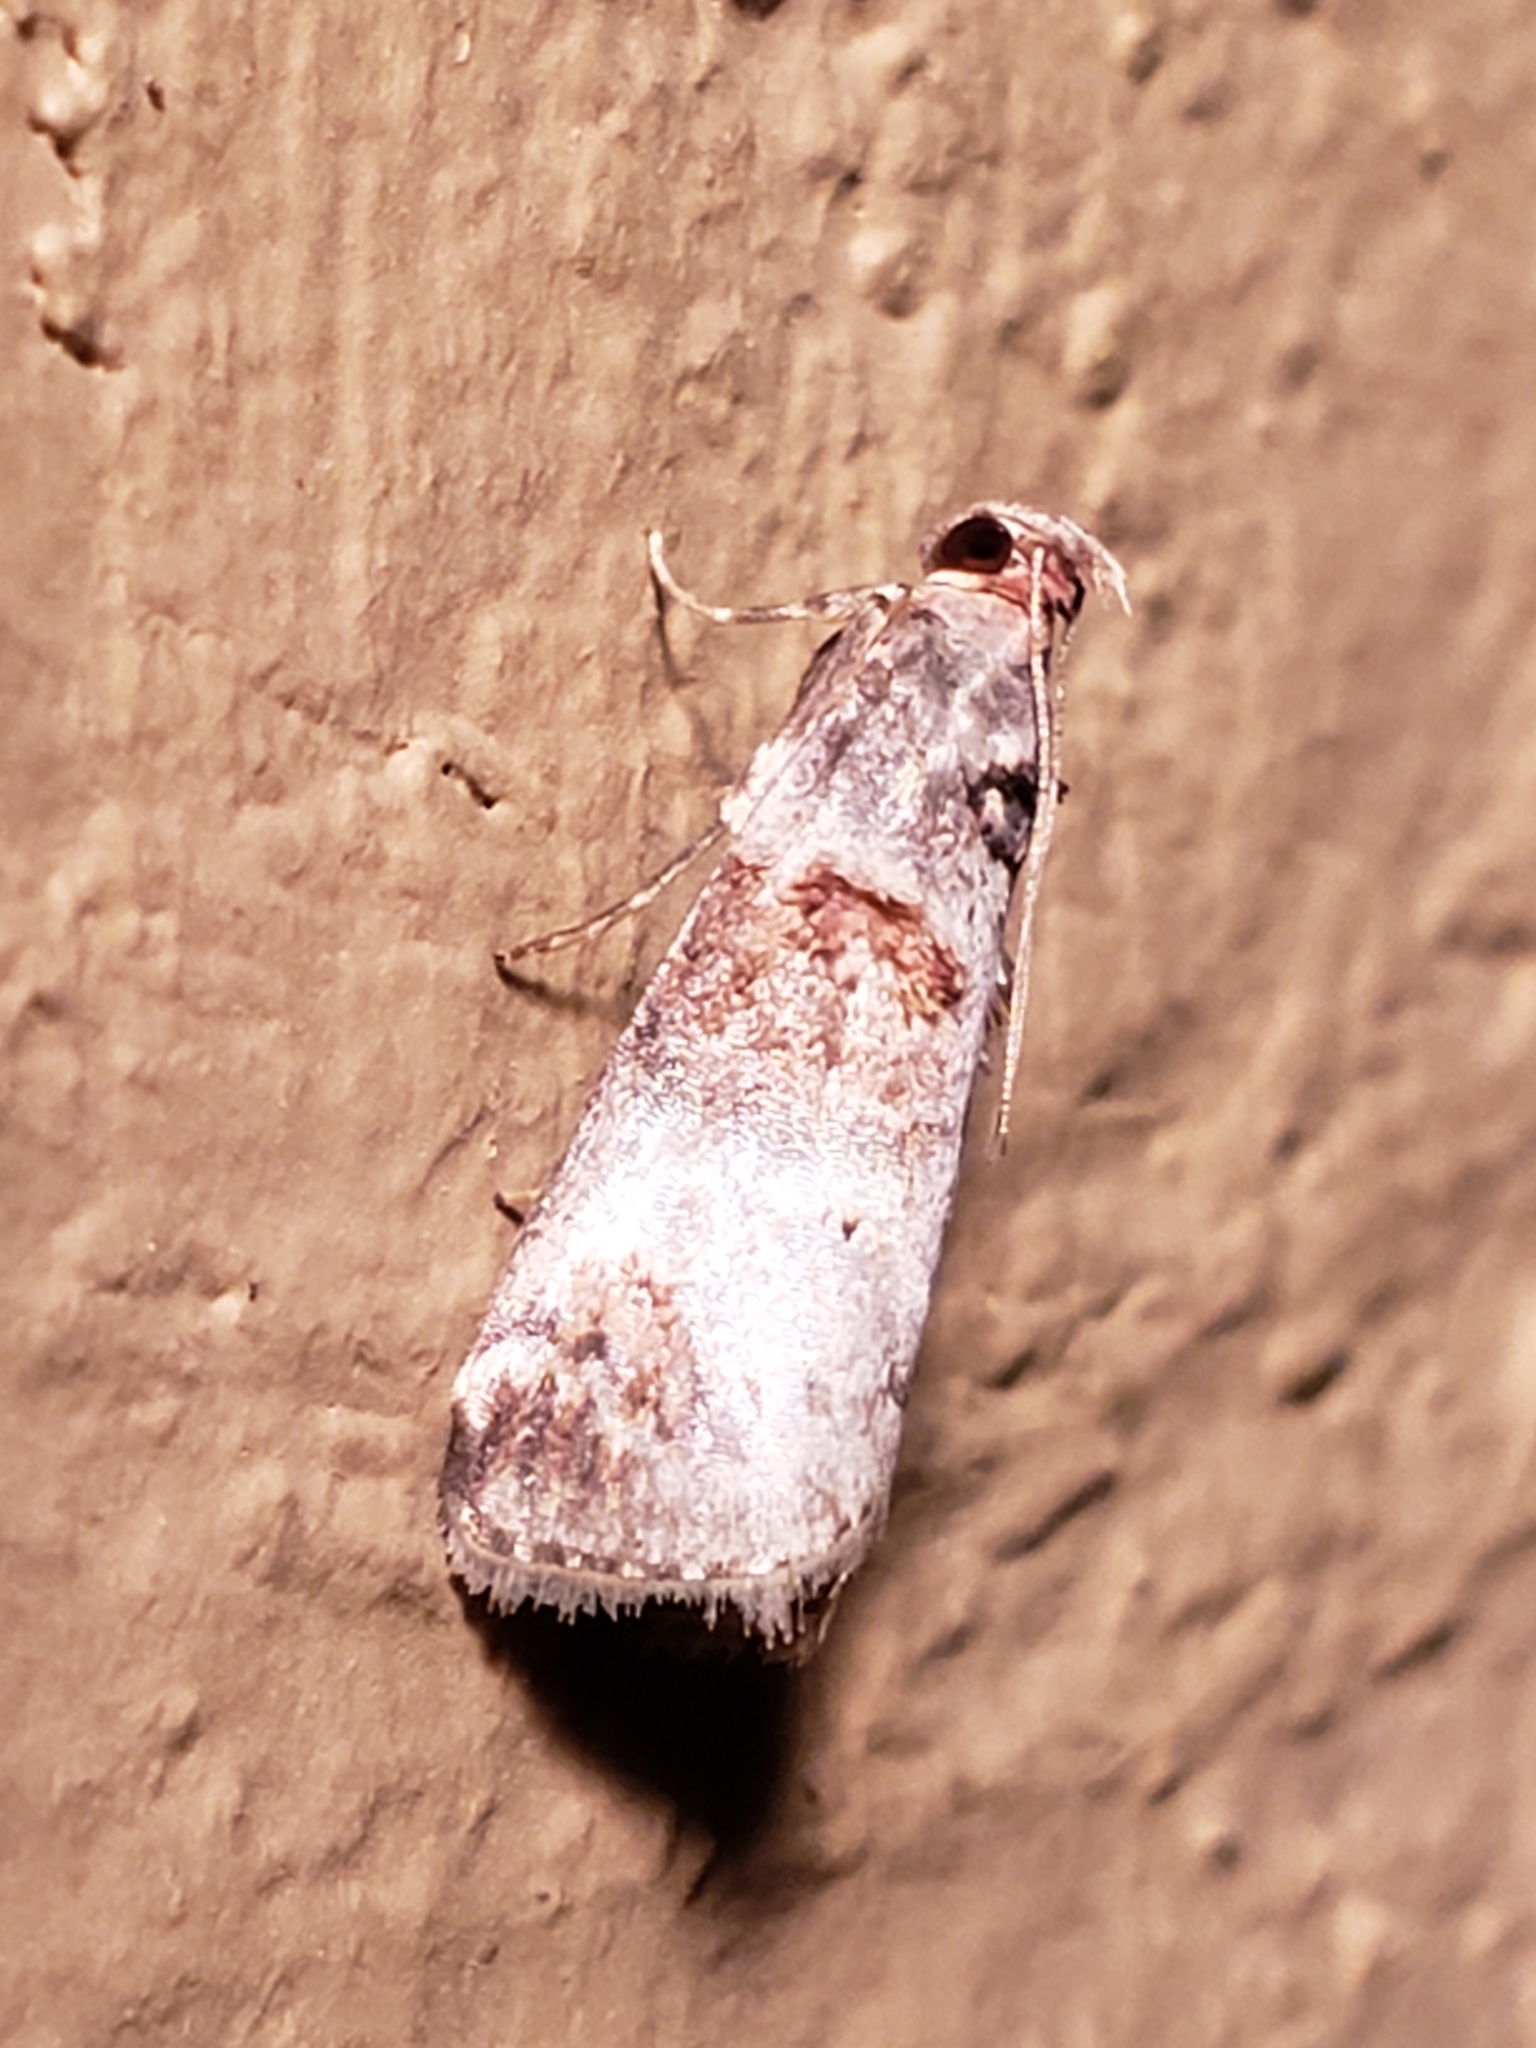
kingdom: Animalia
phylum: Arthropoda
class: Insecta
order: Lepidoptera
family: Pyralidae
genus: Oneida
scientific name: Oneida lunulalis
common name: Orange-tufted oneida moth
